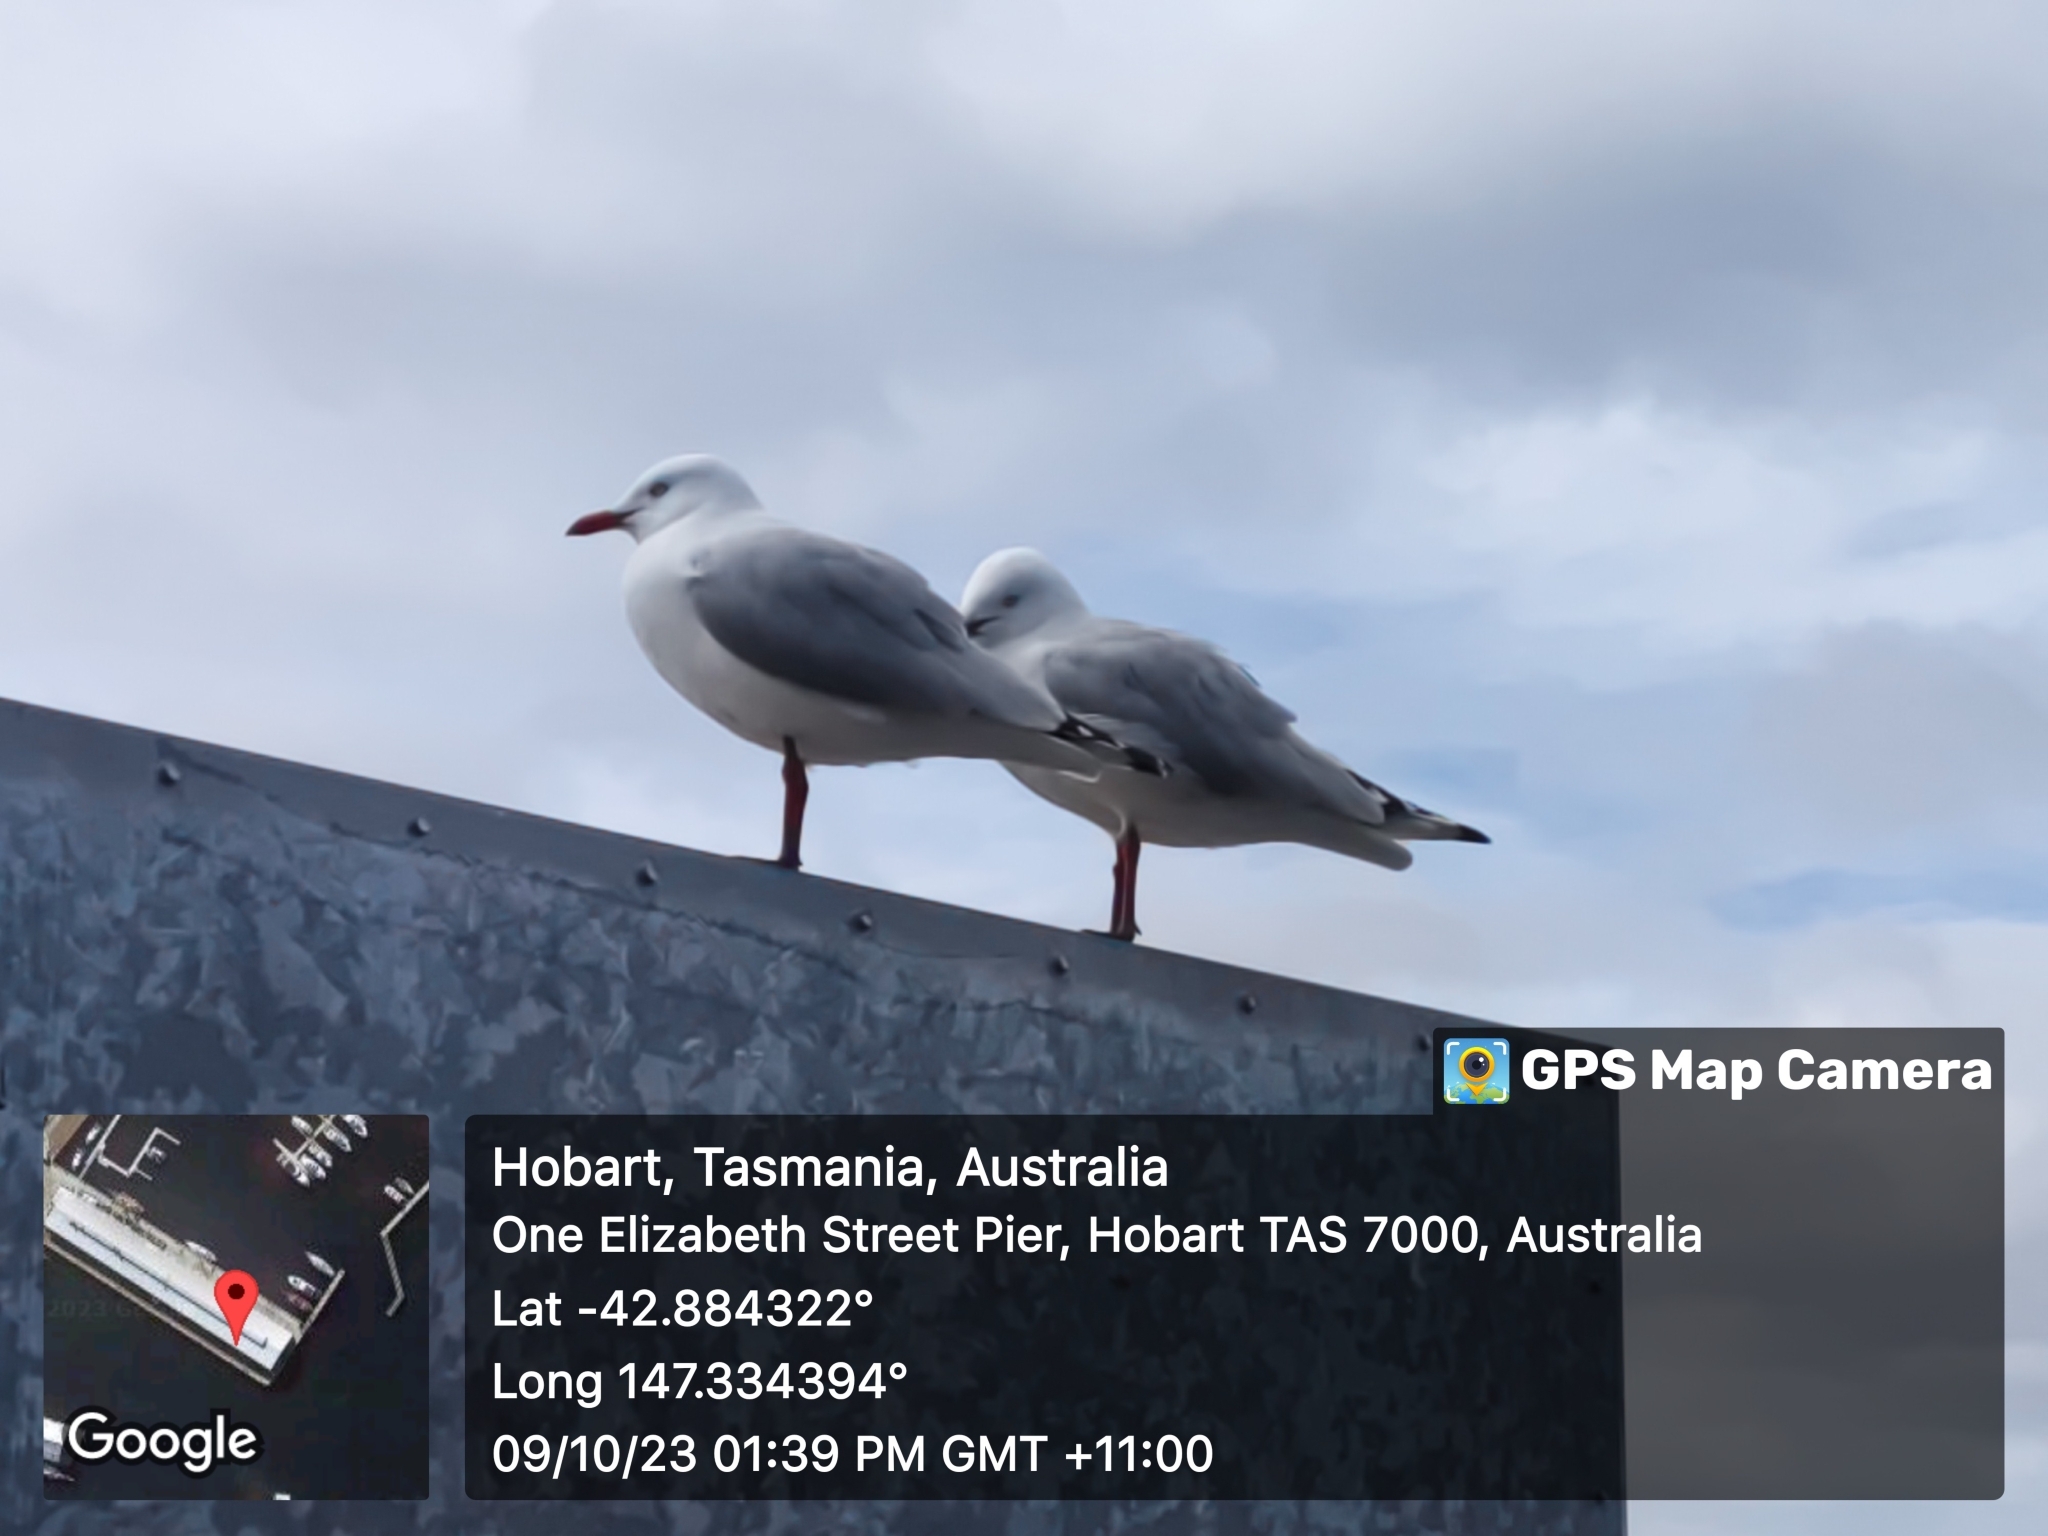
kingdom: Animalia
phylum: Chordata
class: Aves
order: Charadriiformes
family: Laridae
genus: Chroicocephalus
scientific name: Chroicocephalus novaehollandiae
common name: Silver gull
